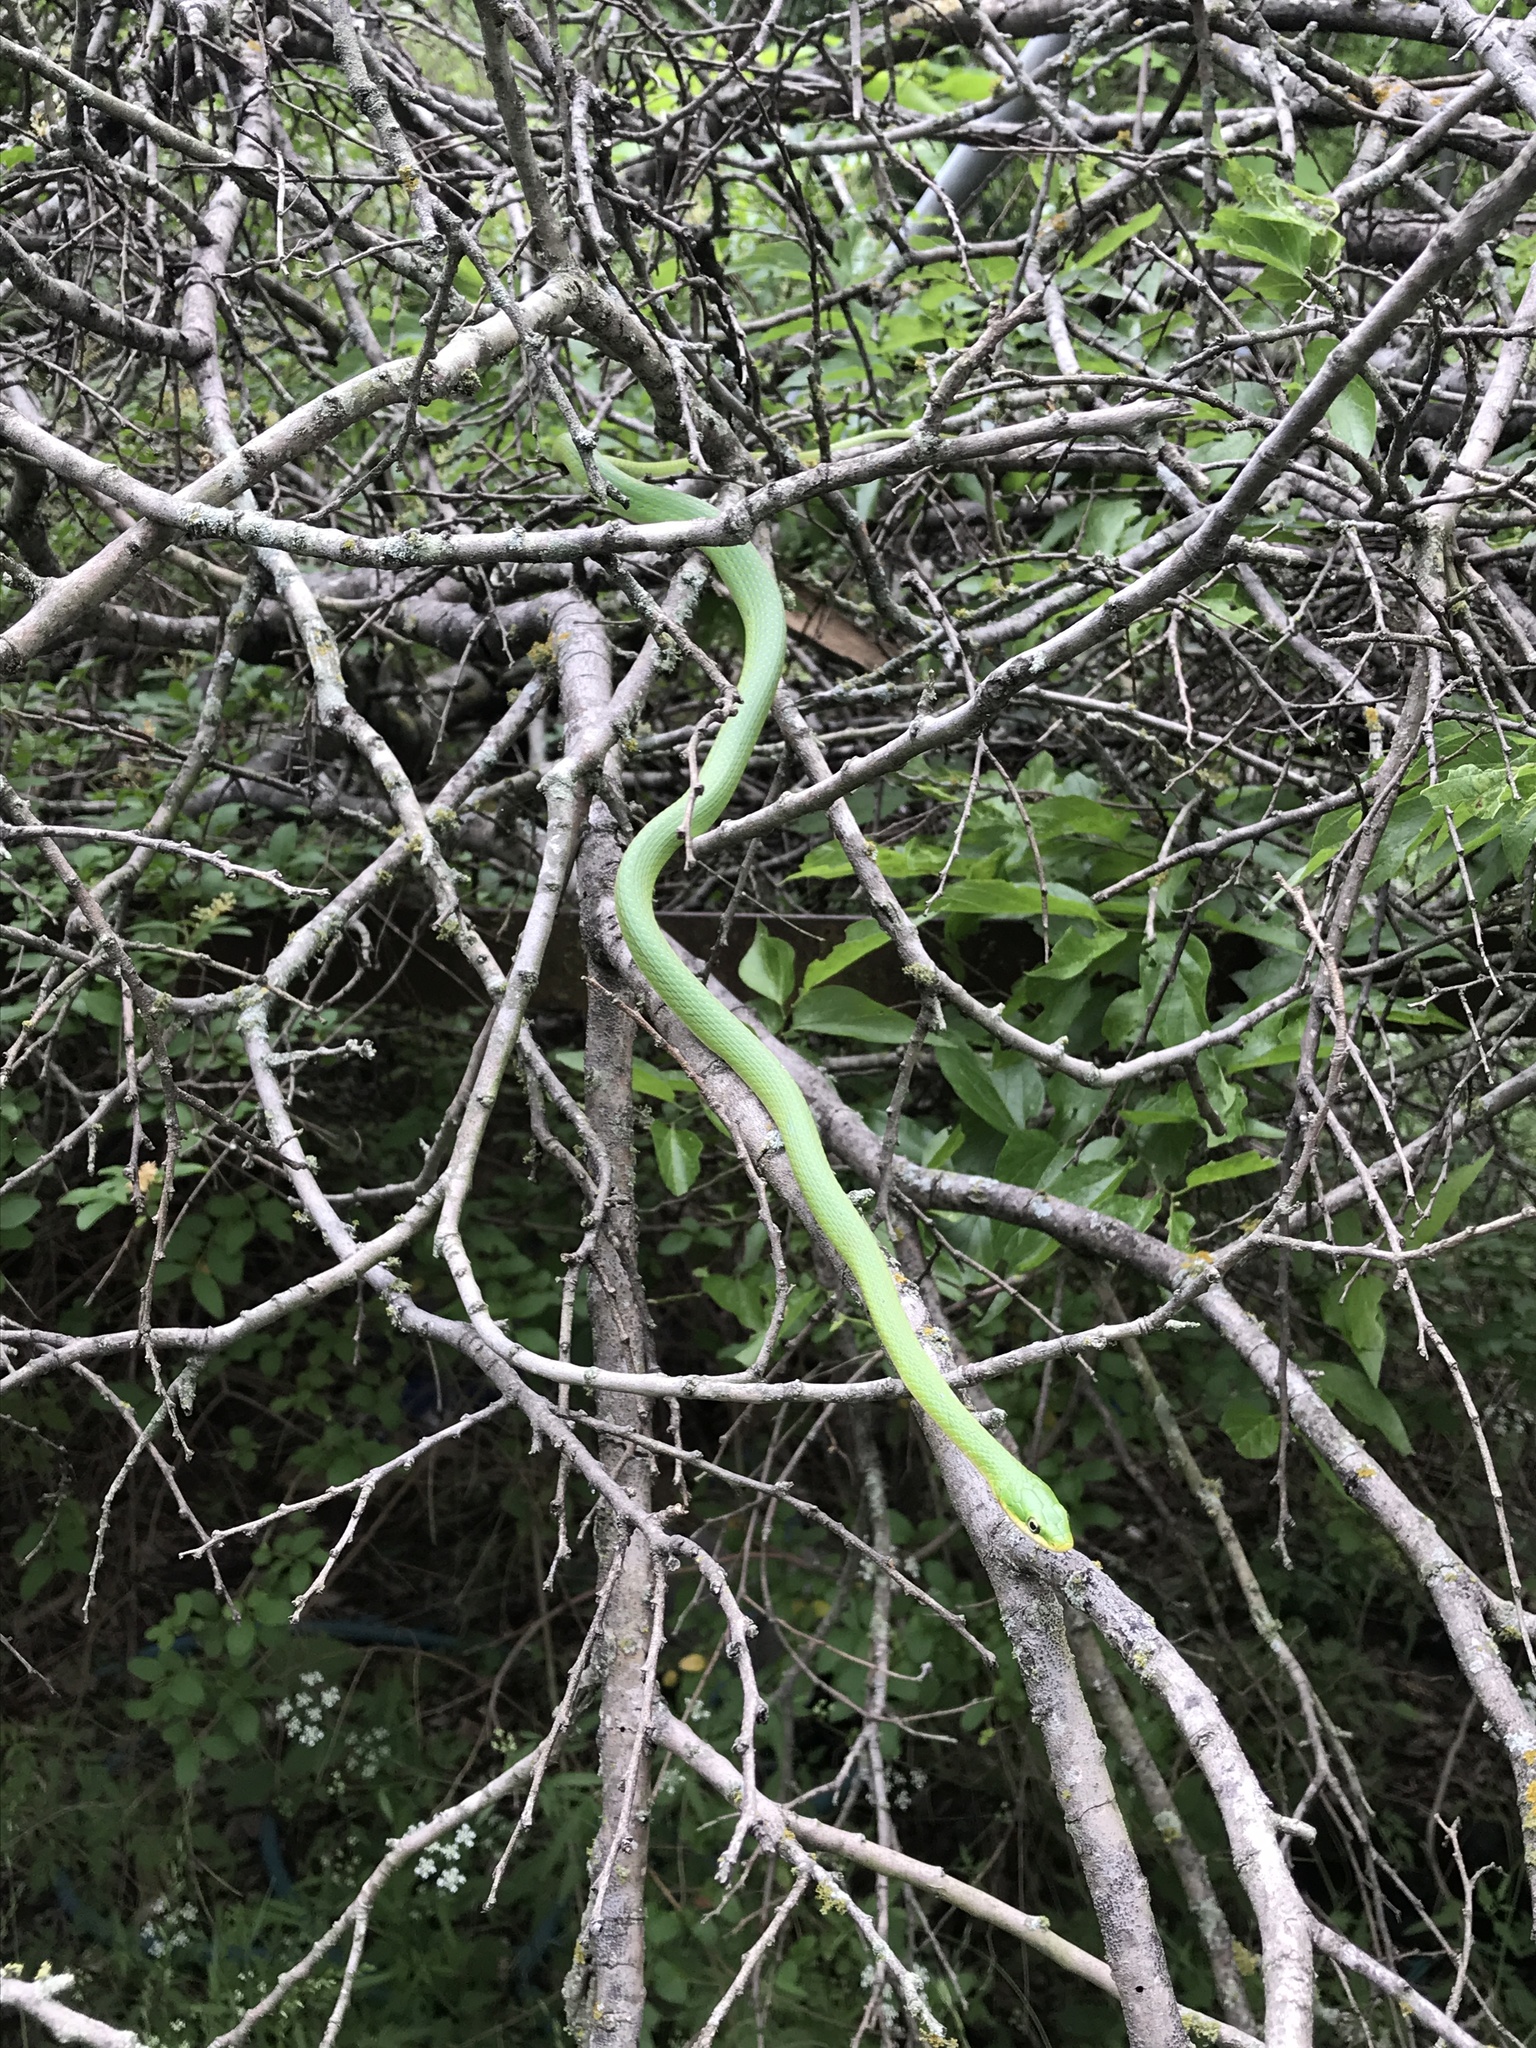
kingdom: Animalia
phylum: Chordata
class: Squamata
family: Colubridae
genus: Opheodrys
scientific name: Opheodrys aestivus
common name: Rough greensnake
